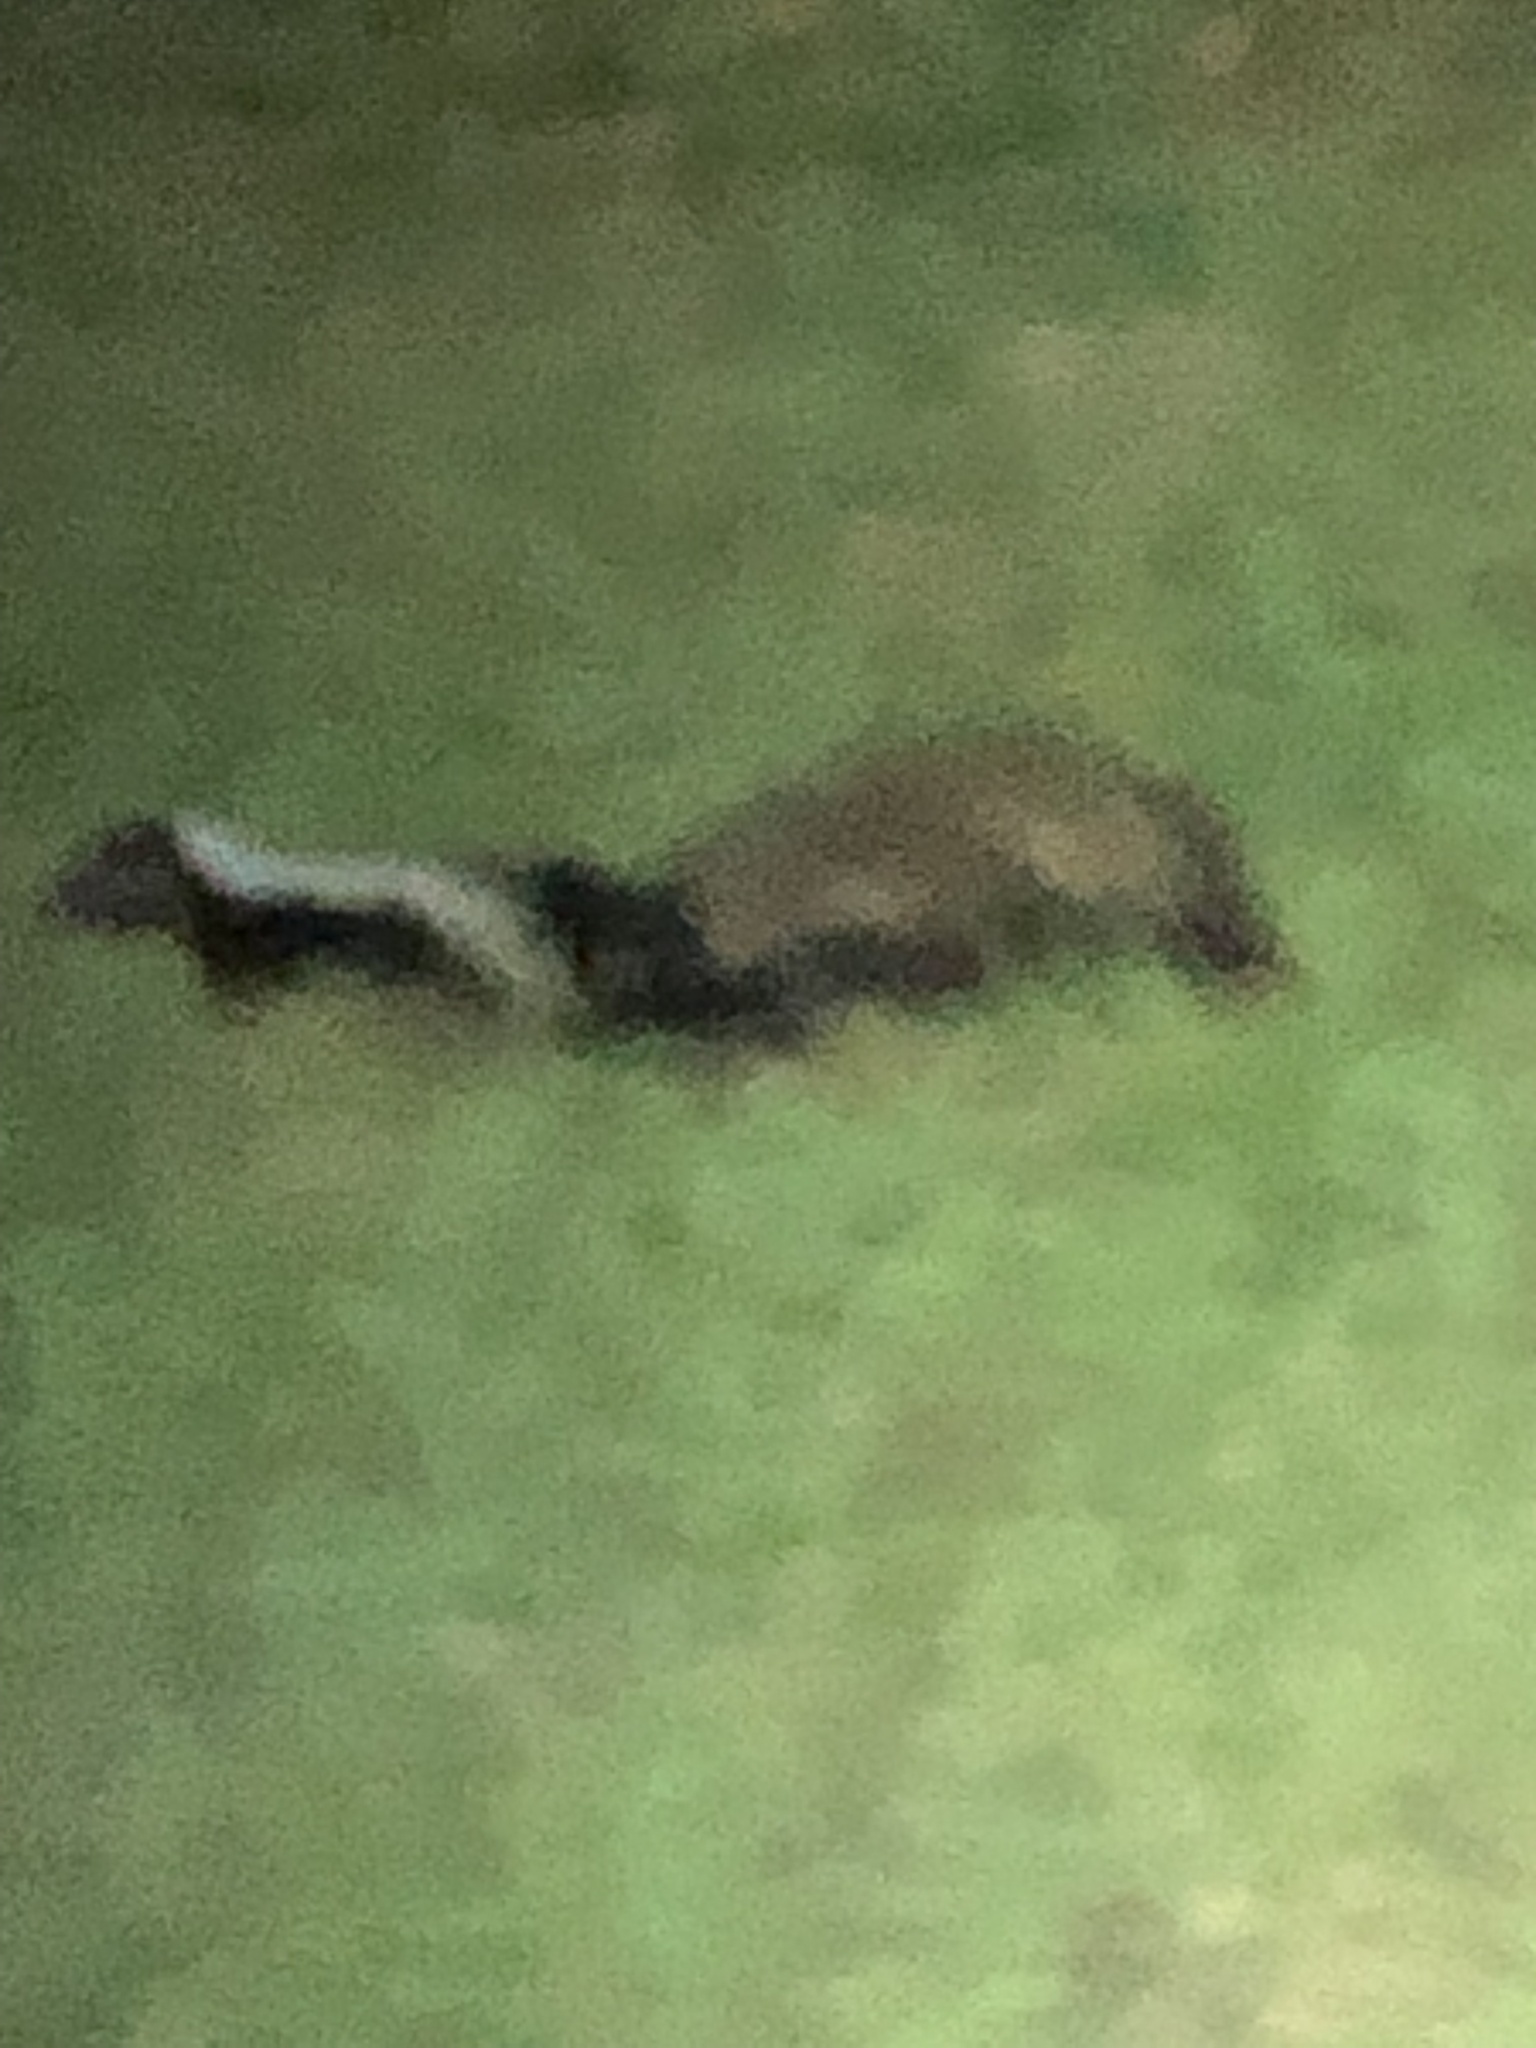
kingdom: Animalia
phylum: Chordata
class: Mammalia
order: Carnivora
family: Mephitidae
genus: Mephitis
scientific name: Mephitis mephitis
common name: Striped skunk
